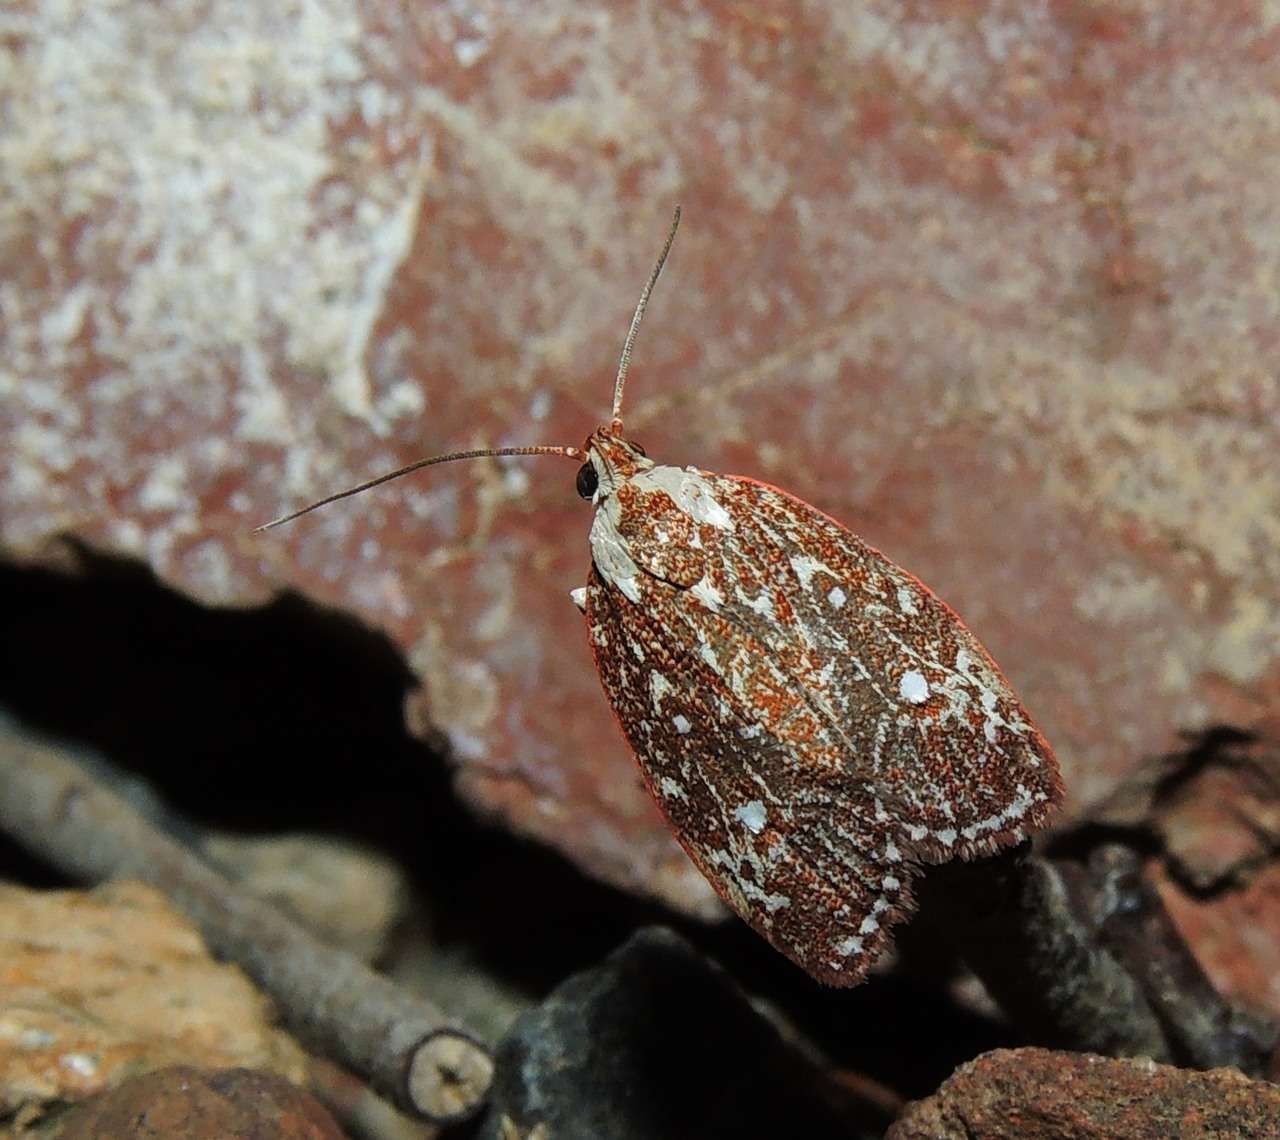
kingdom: Animalia
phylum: Arthropoda
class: Insecta
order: Lepidoptera
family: Oecophoridae
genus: Euchaetis
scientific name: Euchaetis metallota
